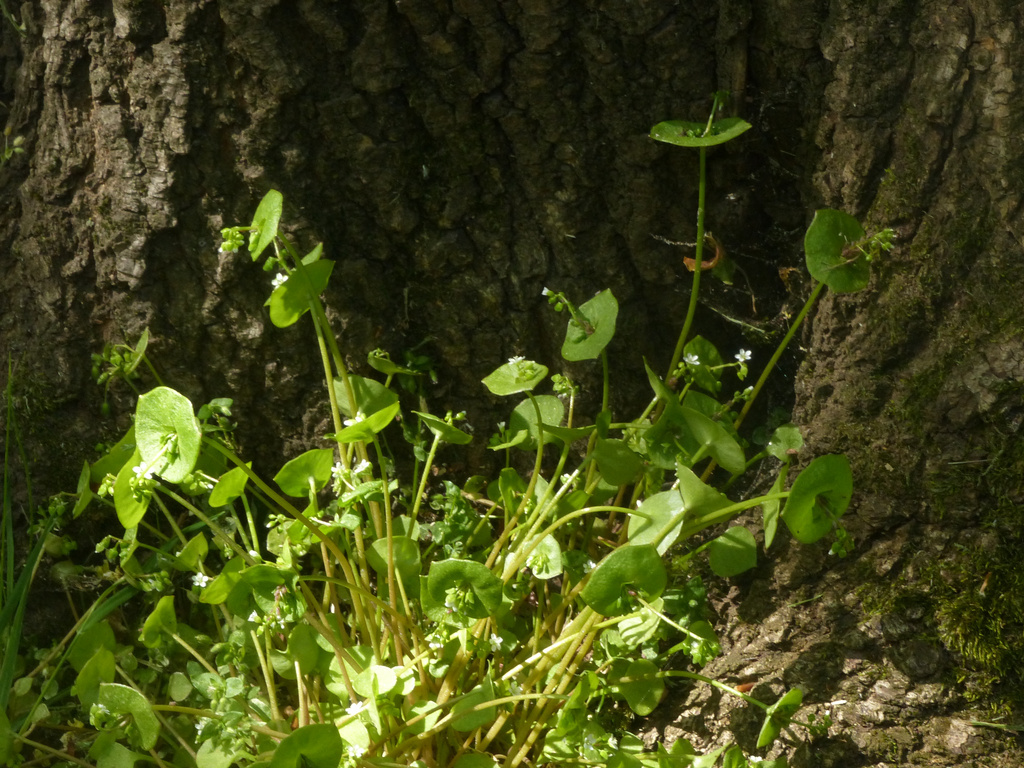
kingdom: Plantae
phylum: Tracheophyta
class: Magnoliopsida
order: Caryophyllales
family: Montiaceae
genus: Claytonia
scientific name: Claytonia perfoliata
